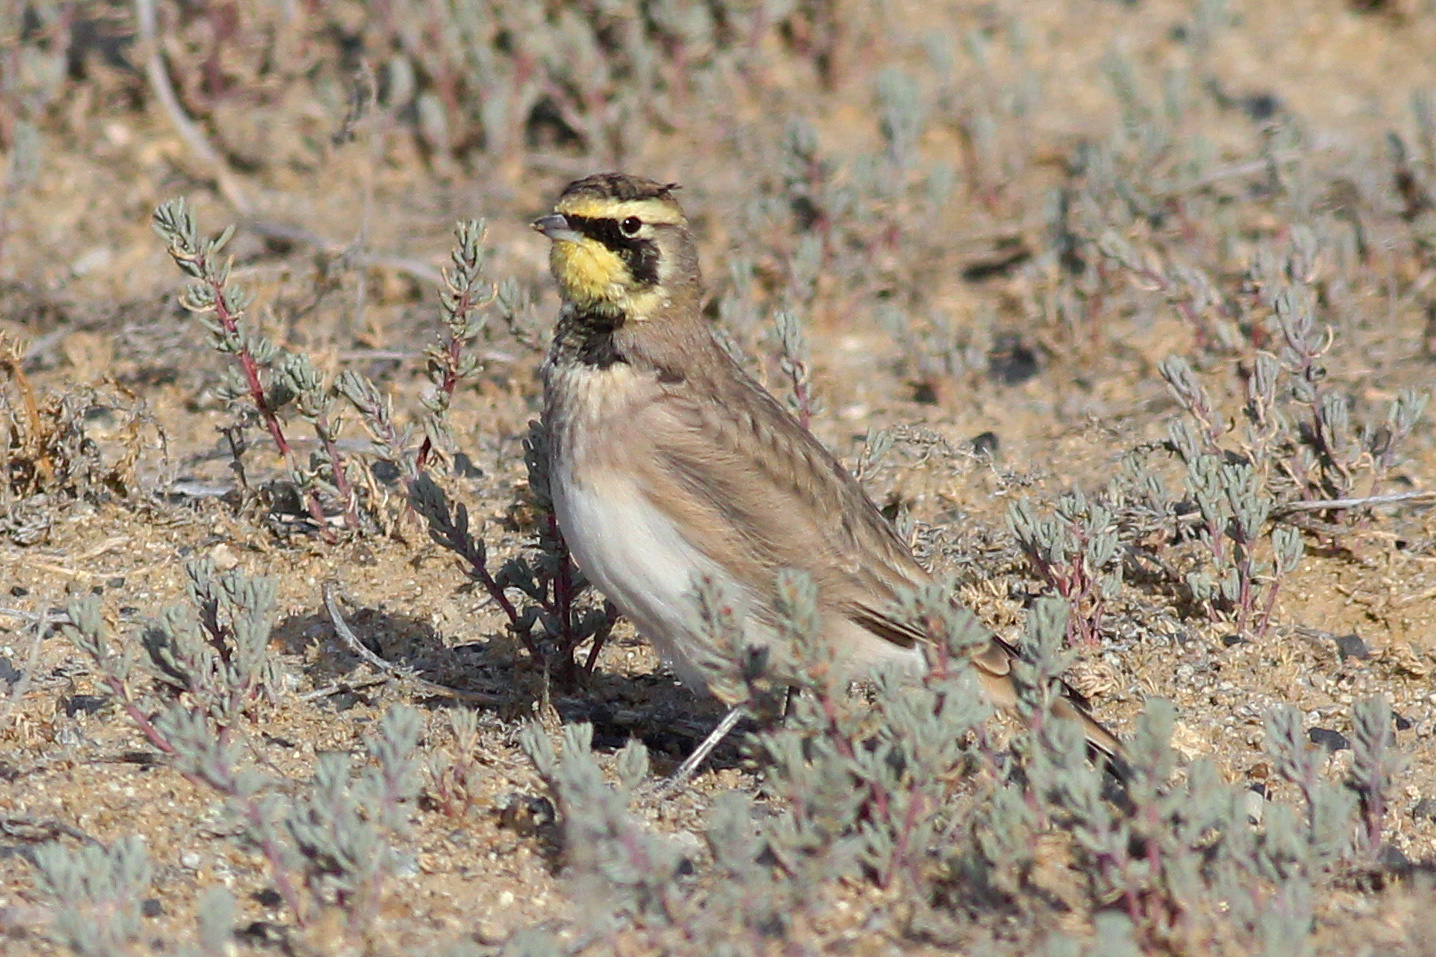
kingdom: Animalia
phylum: Chordata
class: Aves
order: Passeriformes
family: Alaudidae
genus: Eremophila
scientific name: Eremophila alpestris
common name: Horned lark
